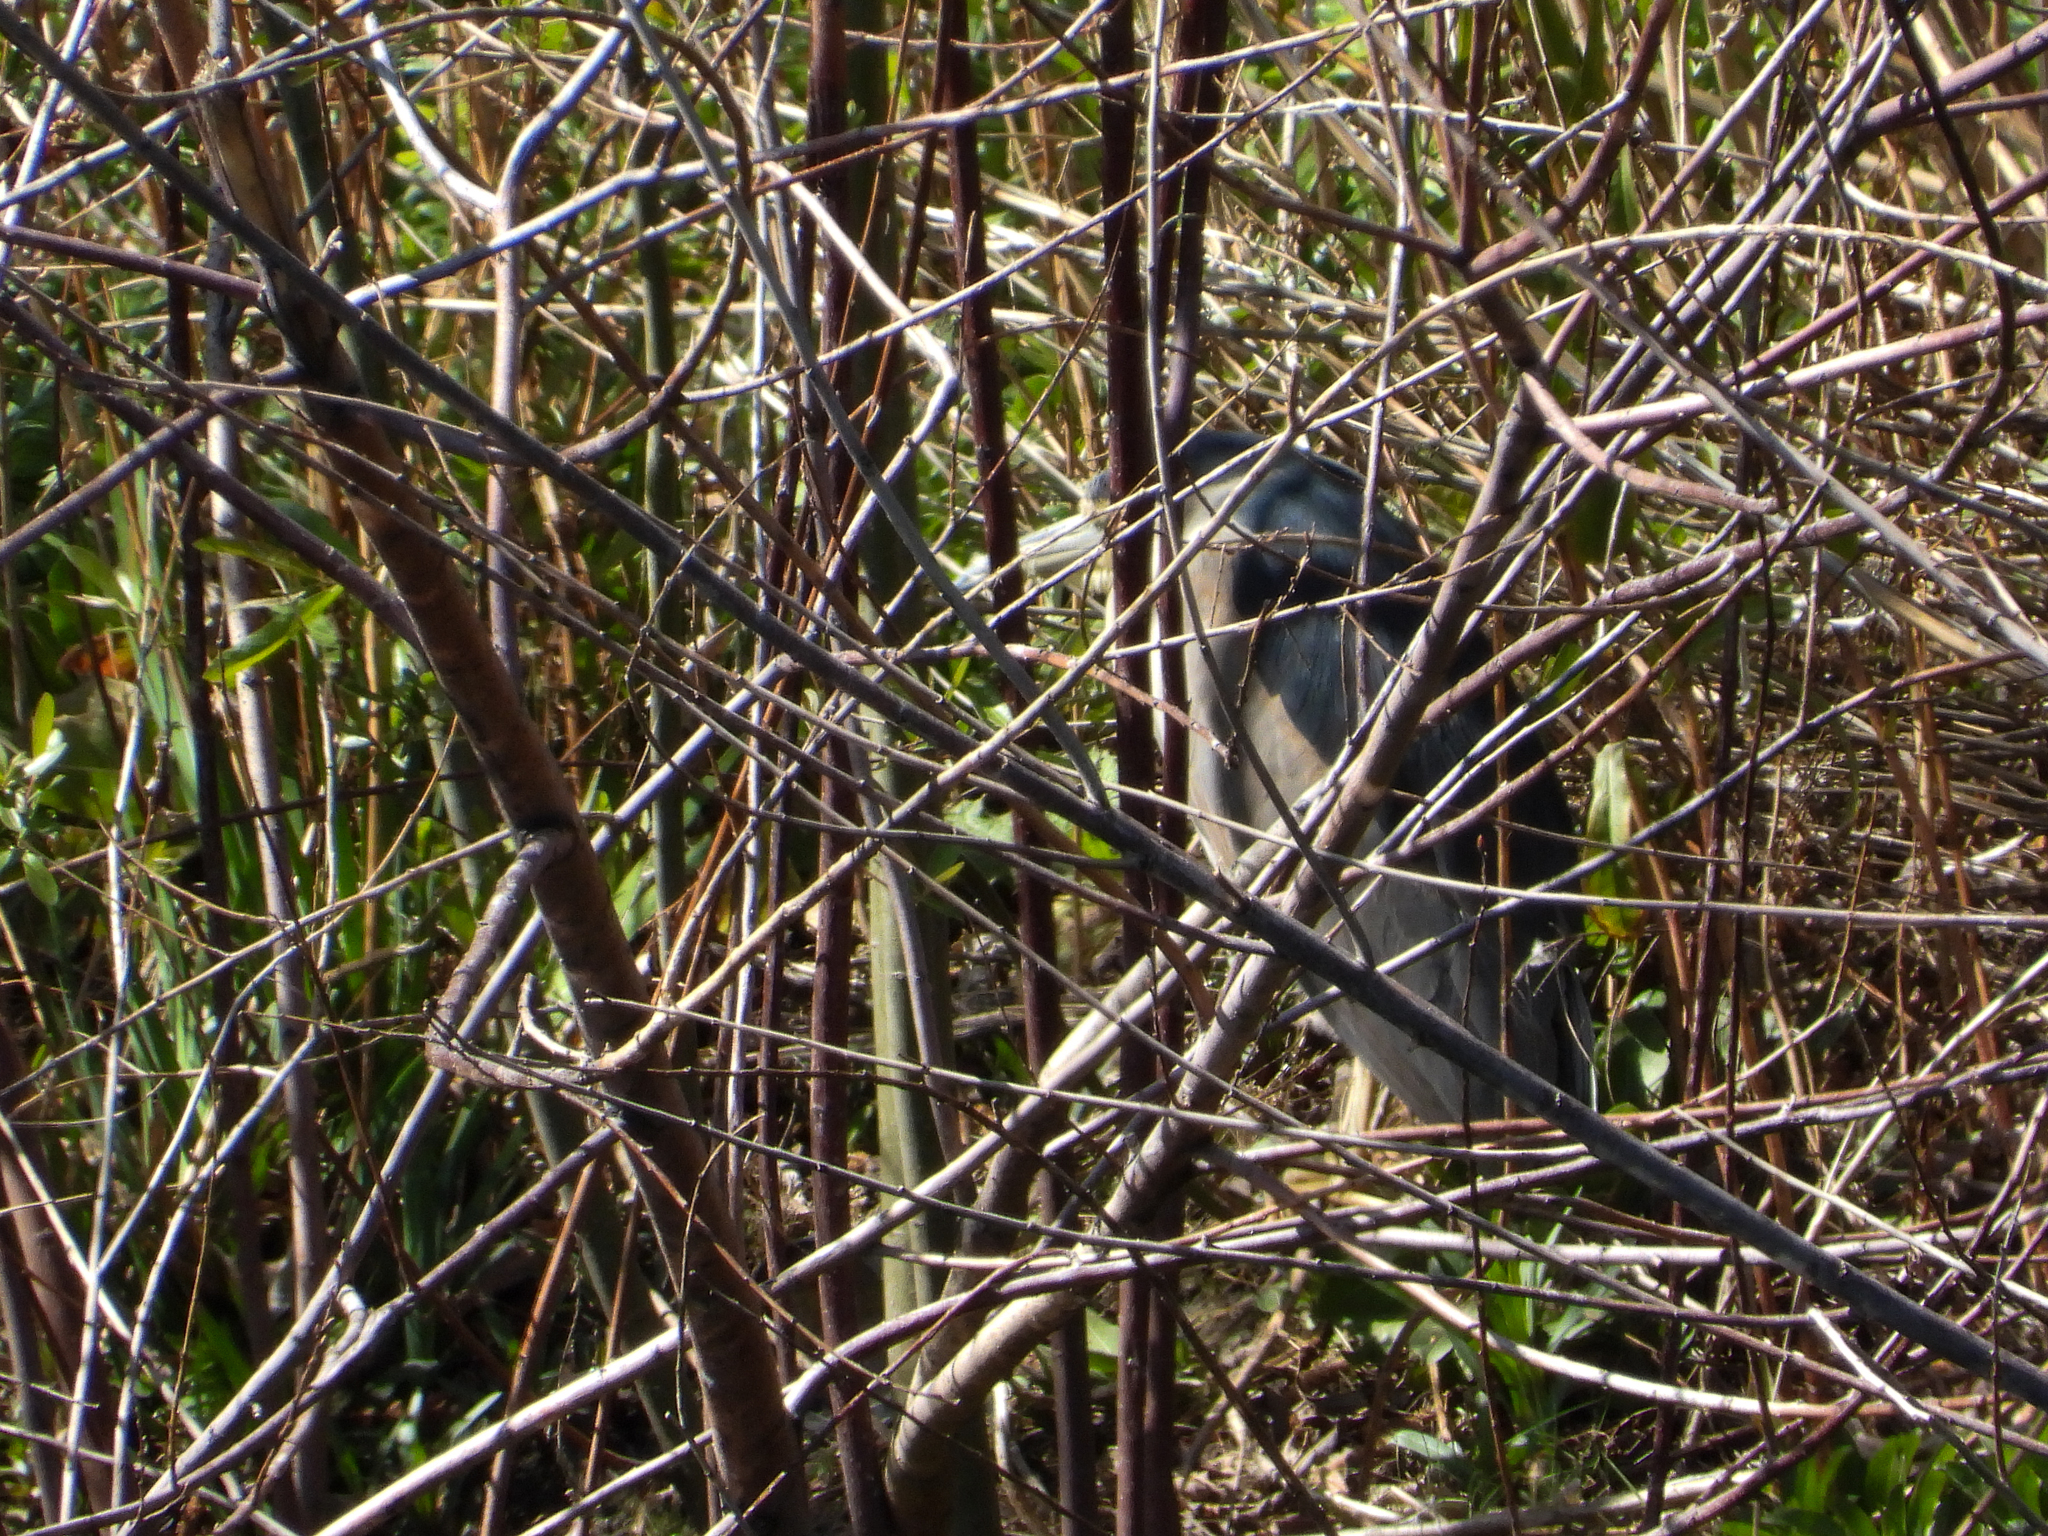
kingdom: Animalia
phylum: Chordata
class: Aves
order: Pelecaniformes
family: Ardeidae
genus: Nycticorax
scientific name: Nycticorax nycticorax
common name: Black-crowned night heron
